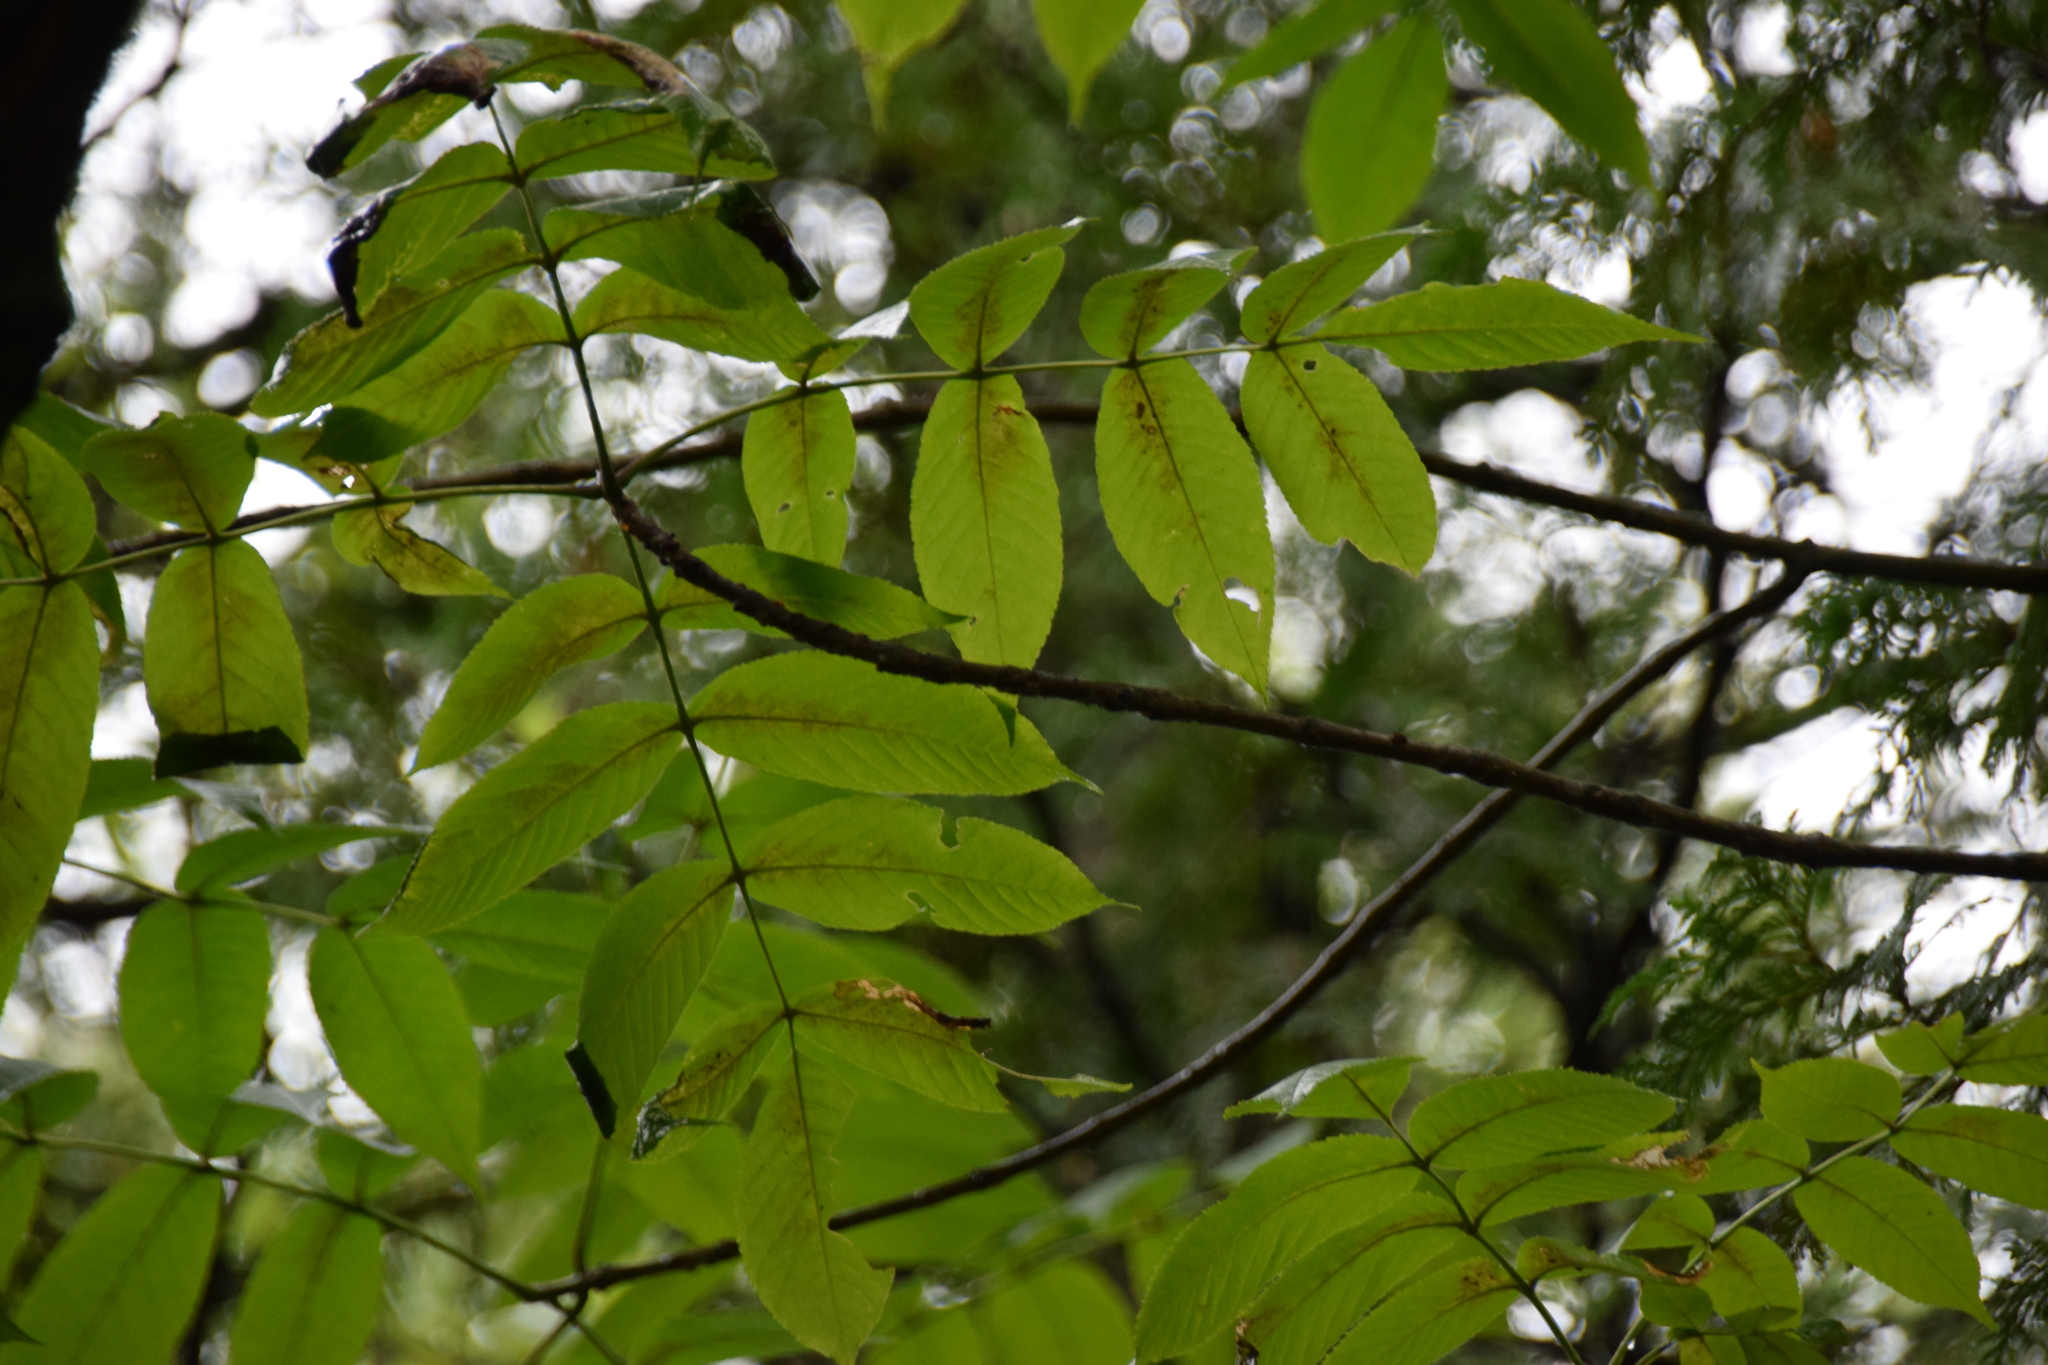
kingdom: Plantae
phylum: Tracheophyta
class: Magnoliopsida
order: Lamiales
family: Oleaceae
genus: Fraxinus
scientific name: Fraxinus nigra
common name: Black ash
